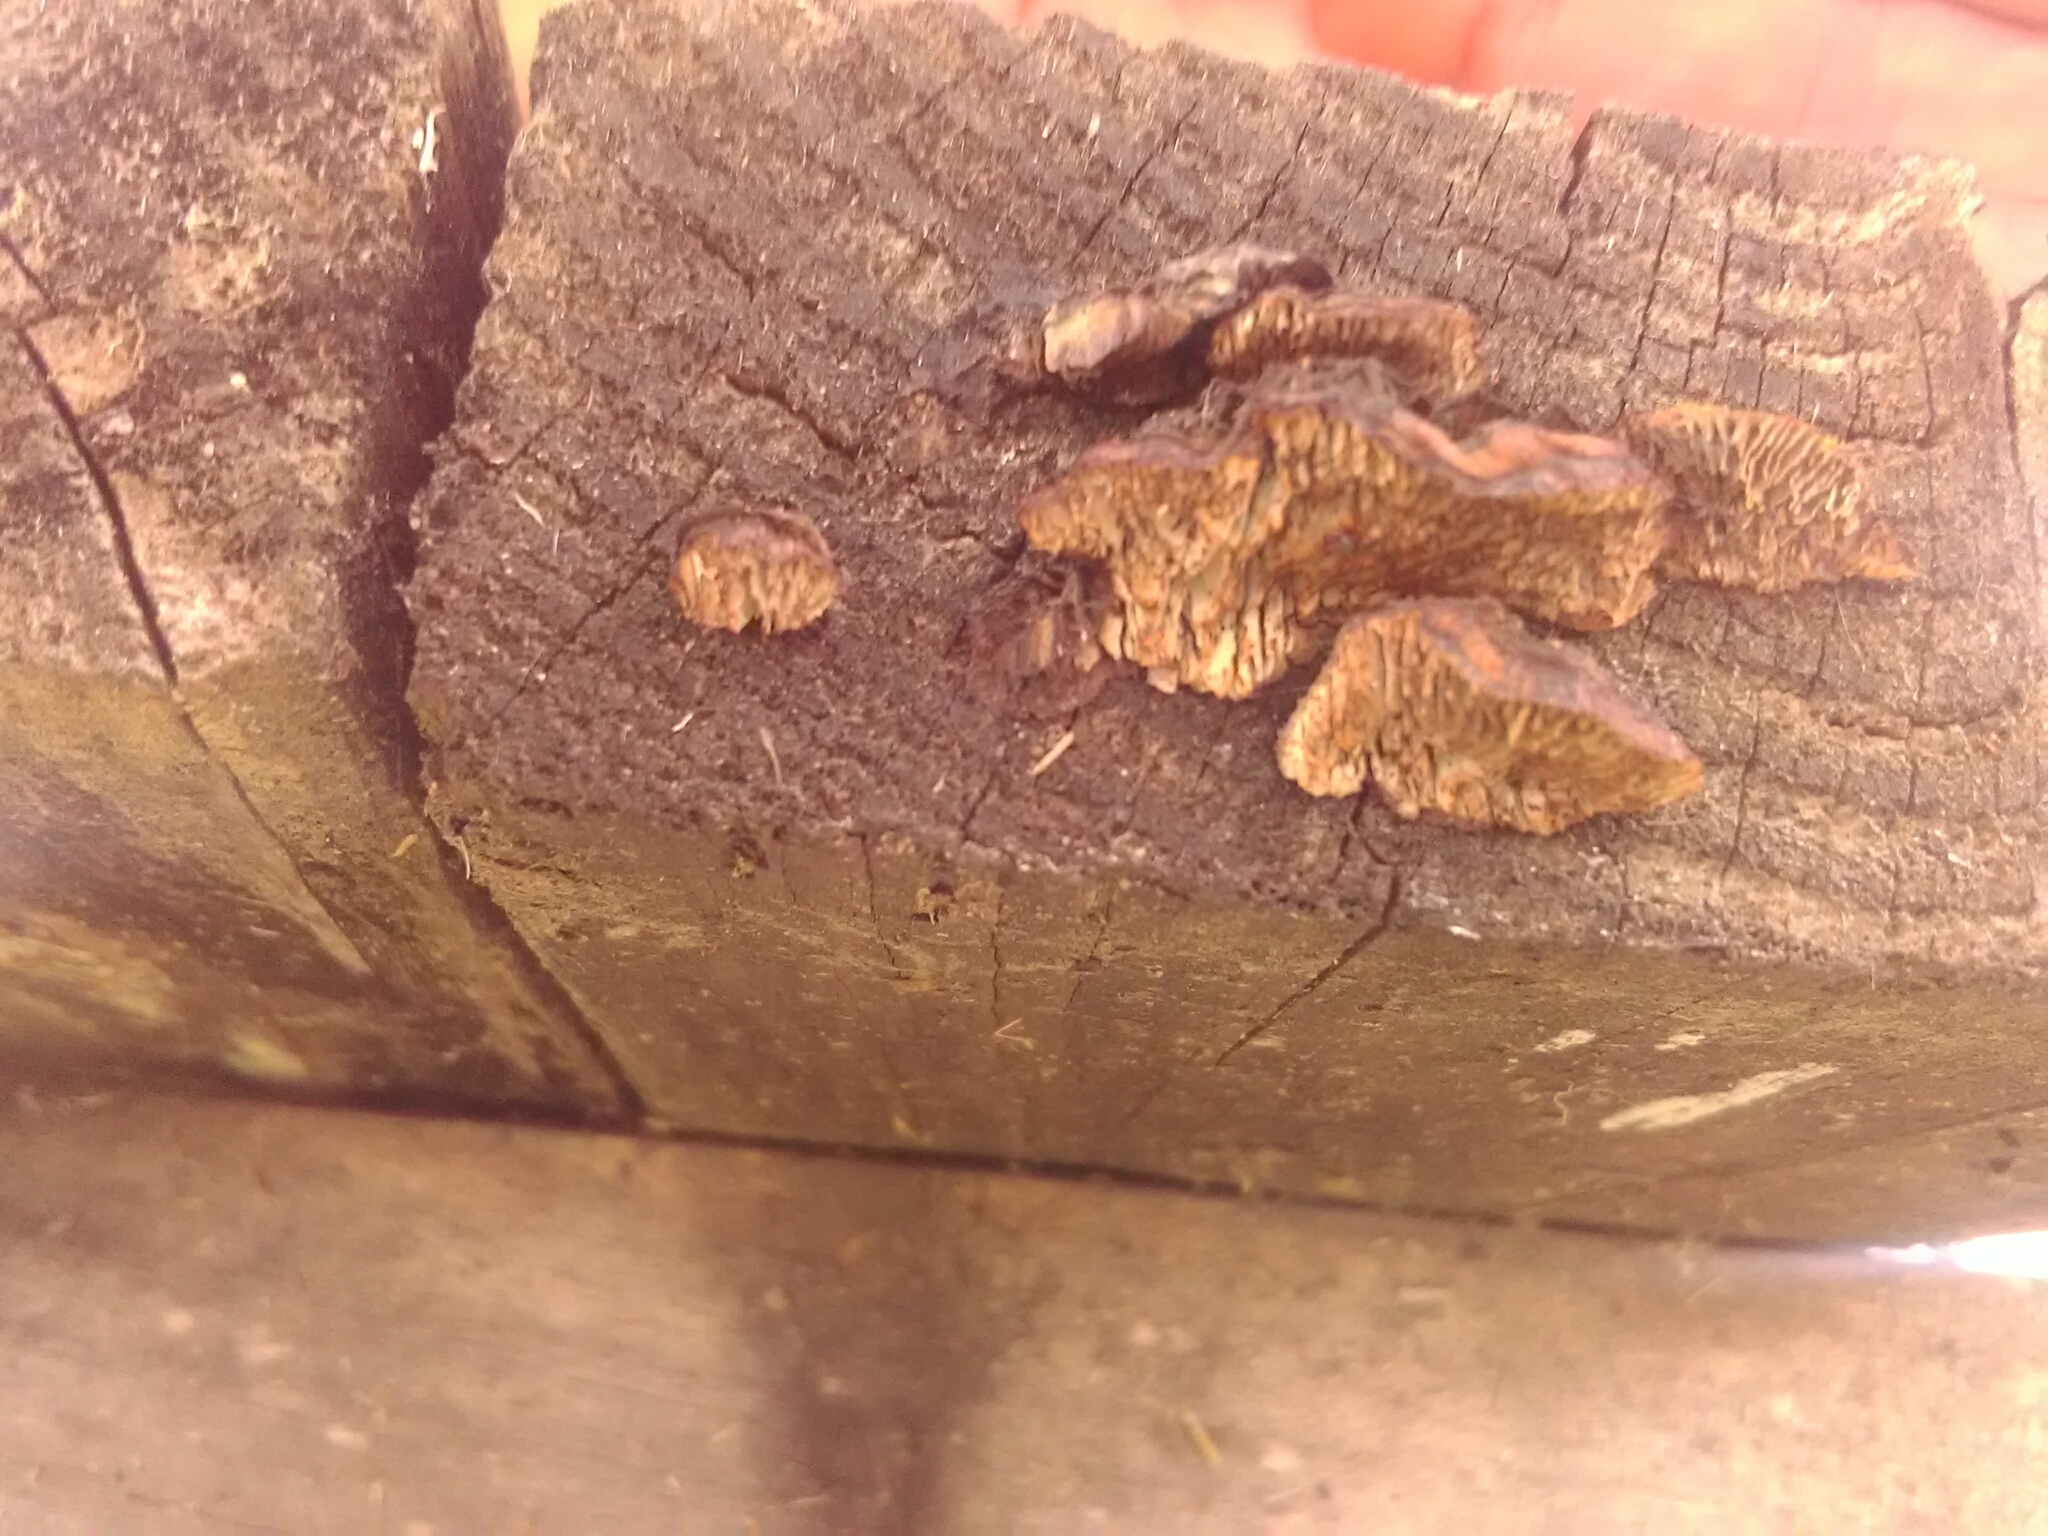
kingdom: Fungi
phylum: Basidiomycota
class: Agaricomycetes
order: Gloeophyllales
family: Gloeophyllaceae
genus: Gloeophyllum
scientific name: Gloeophyllum sepiarium
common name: Conifer mazegill
